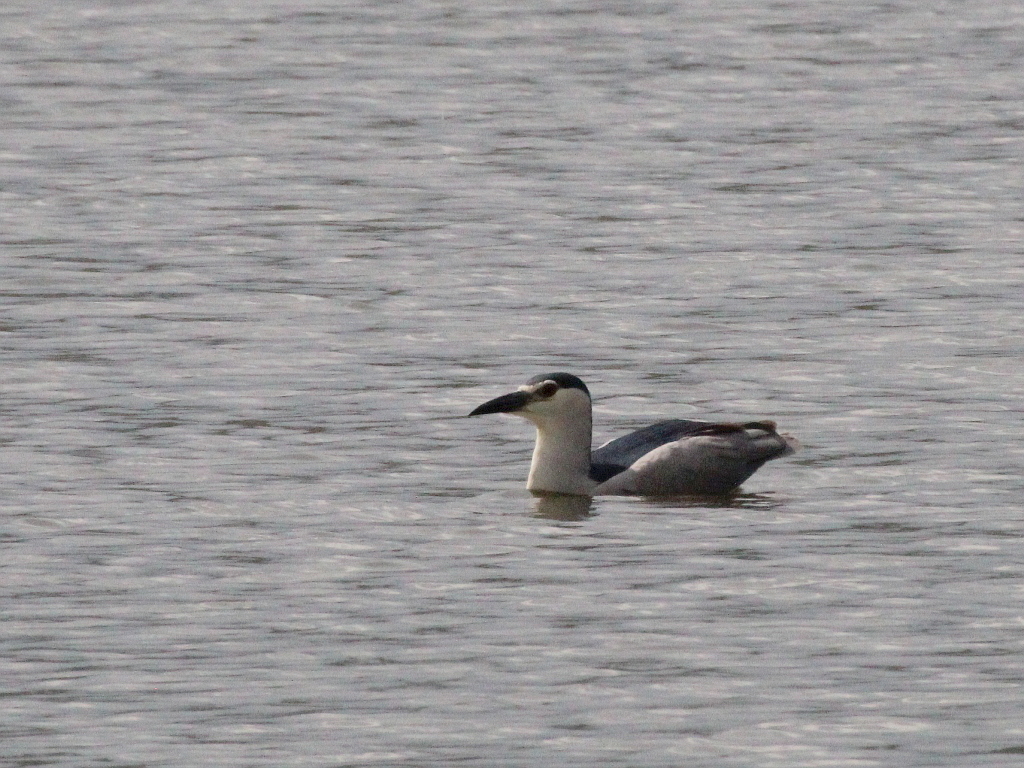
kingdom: Animalia
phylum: Chordata
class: Aves
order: Pelecaniformes
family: Ardeidae
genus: Nycticorax
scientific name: Nycticorax nycticorax
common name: Black-crowned night heron
